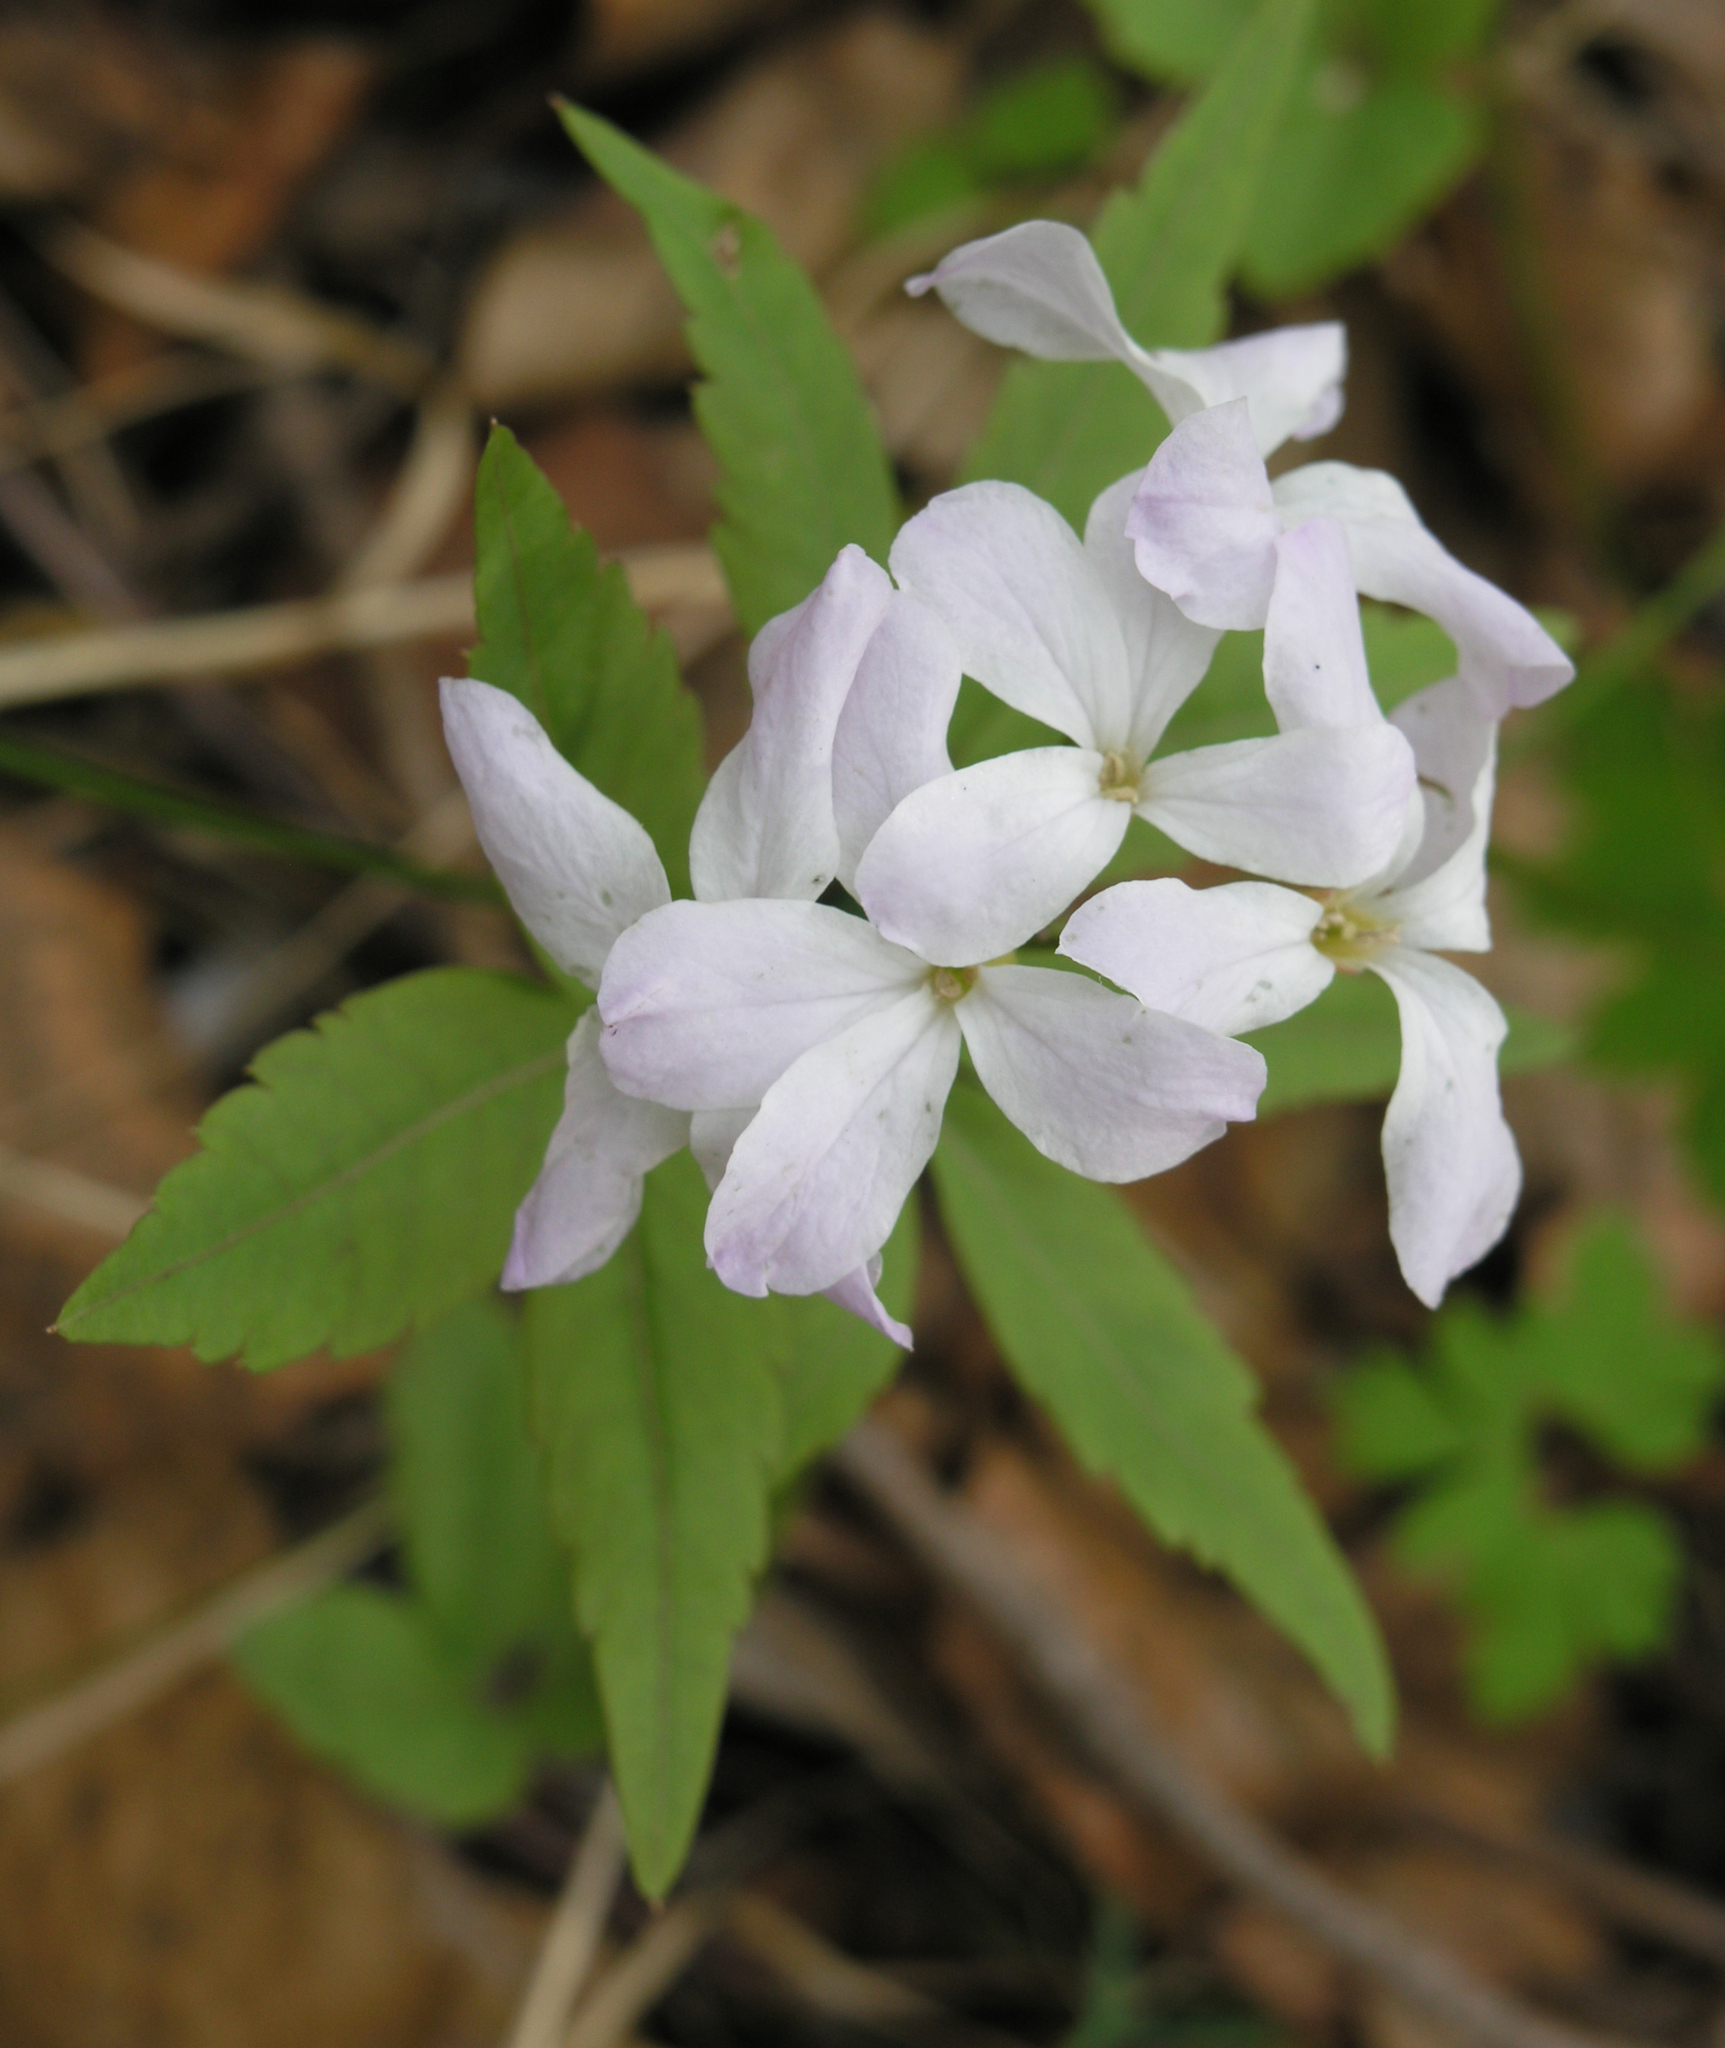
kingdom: Plantae
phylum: Tracheophyta
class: Magnoliopsida
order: Brassicales
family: Brassicaceae
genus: Cardamine
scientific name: Cardamine altaica
